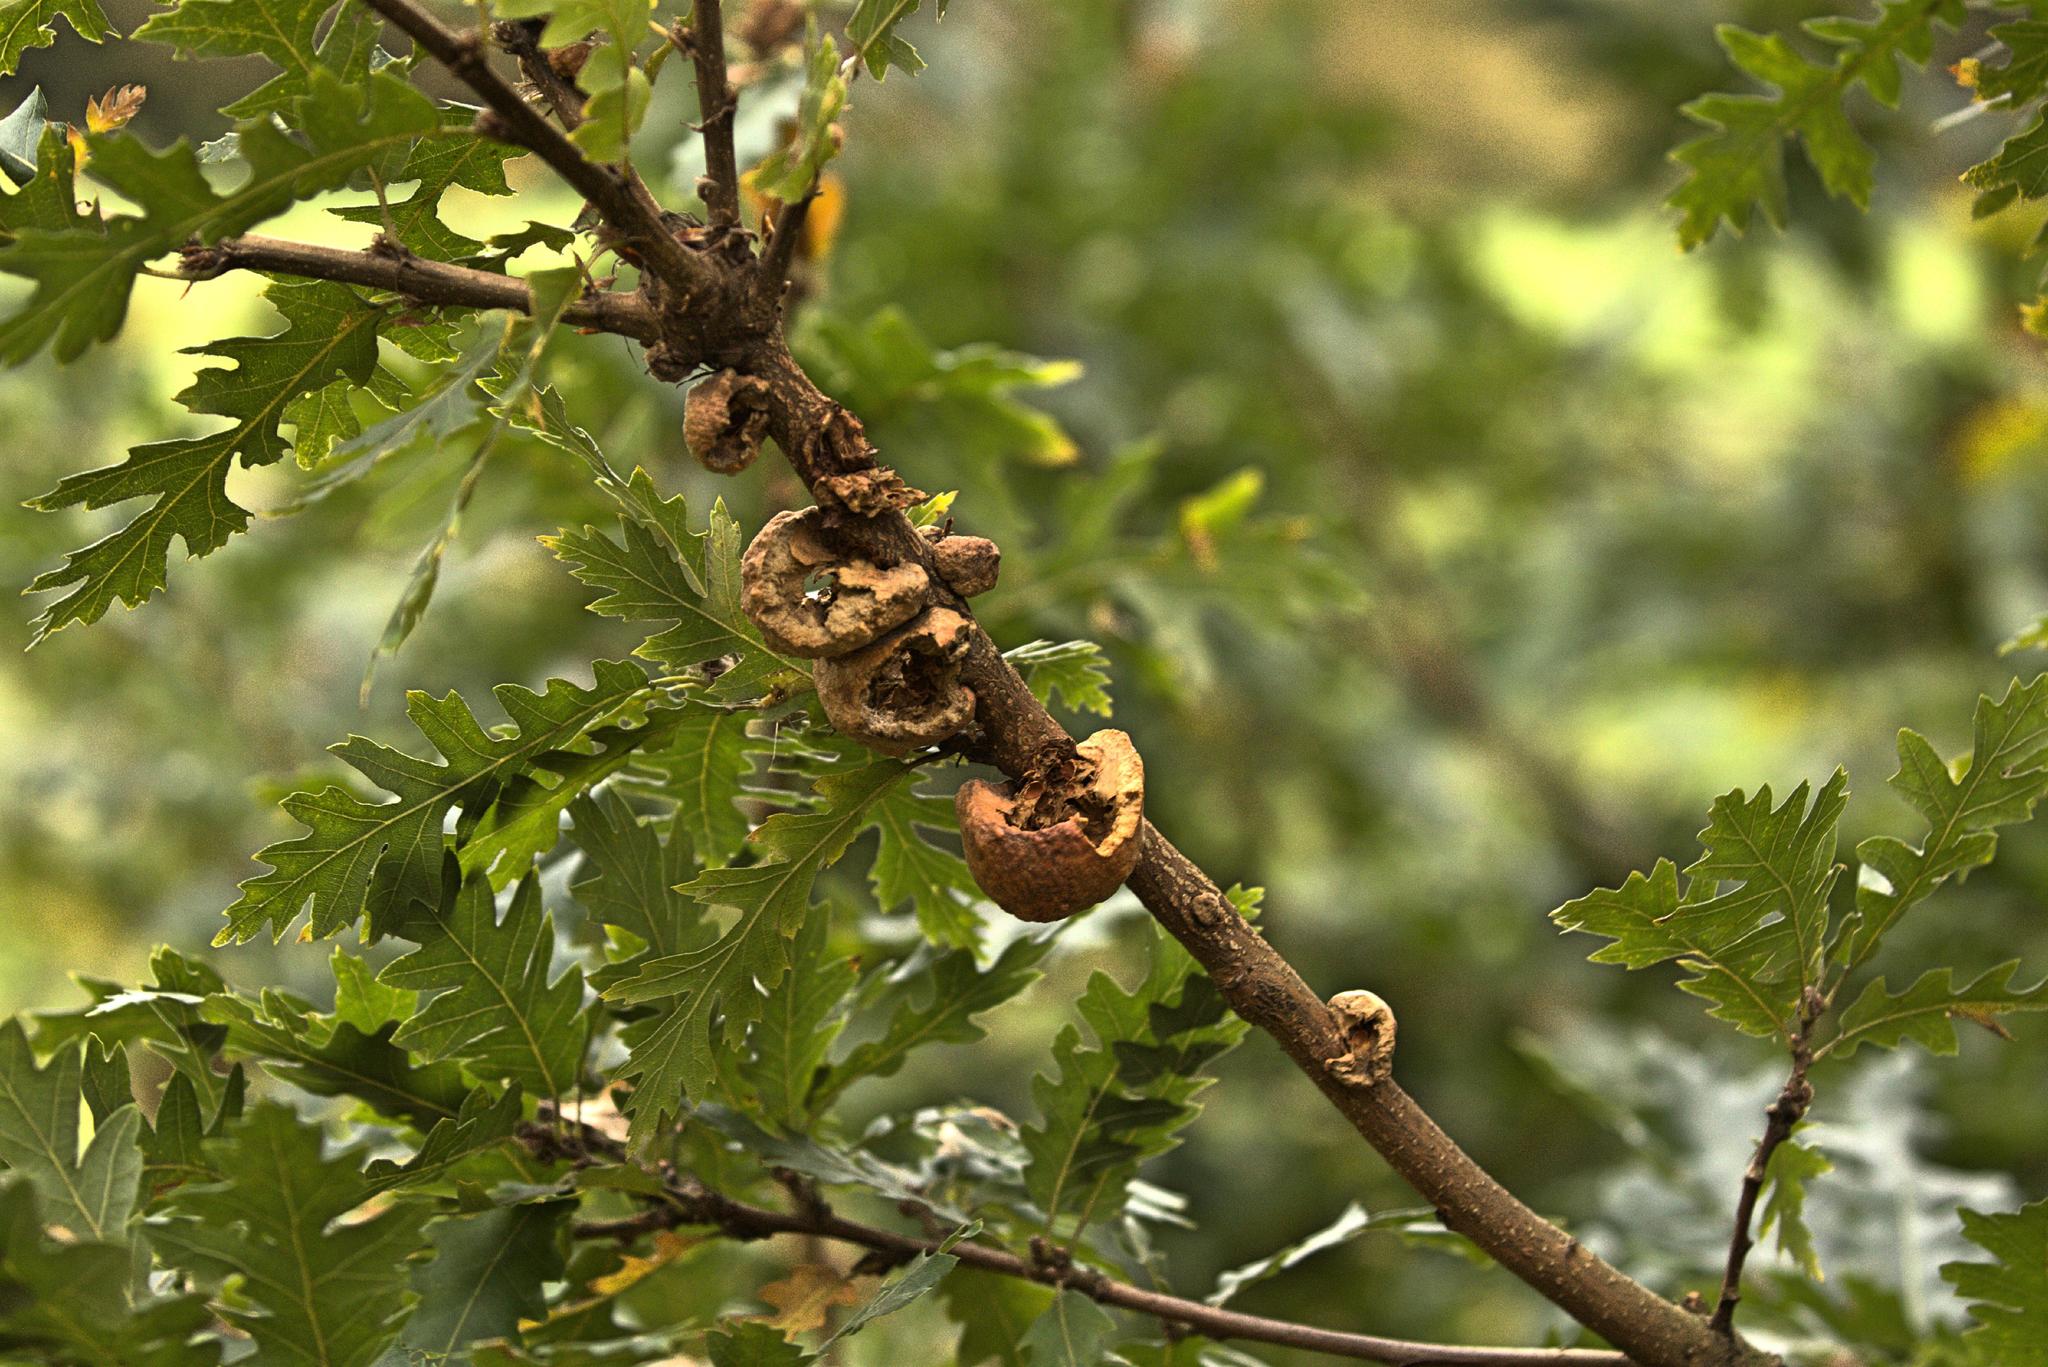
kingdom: Animalia
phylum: Arthropoda
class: Insecta
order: Hymenoptera
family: Cynipidae
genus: Aphelonyx
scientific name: Aphelonyx cerricola
